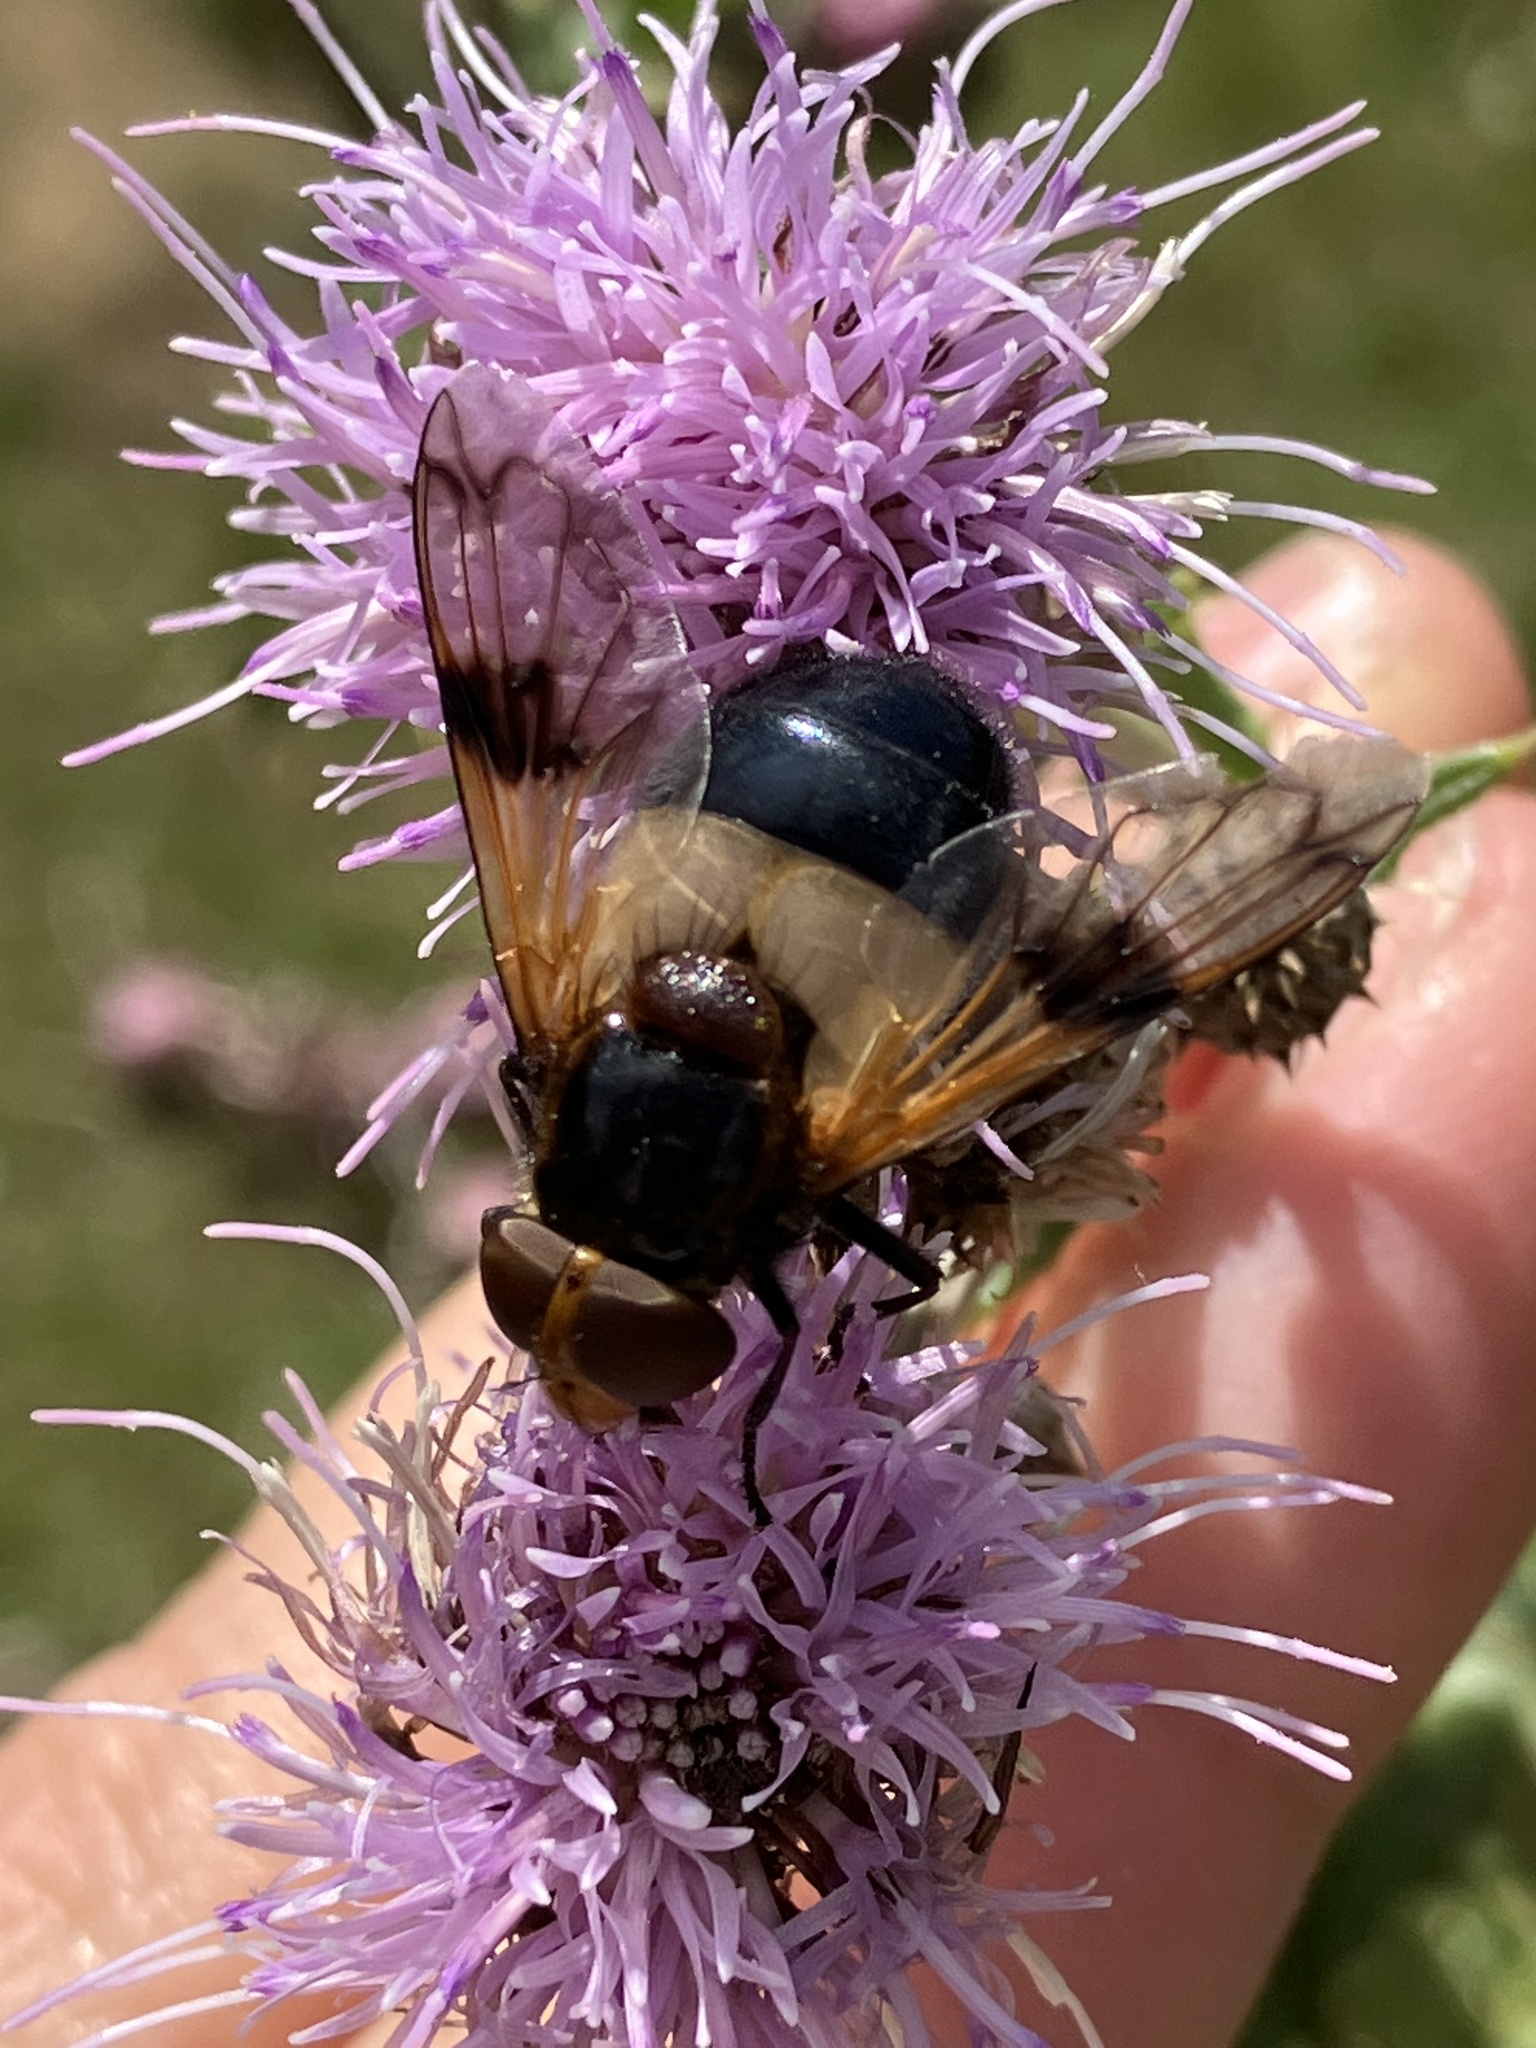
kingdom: Animalia
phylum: Arthropoda
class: Insecta
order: Diptera
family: Syrphidae
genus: Volucella
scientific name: Volucella pellucens
